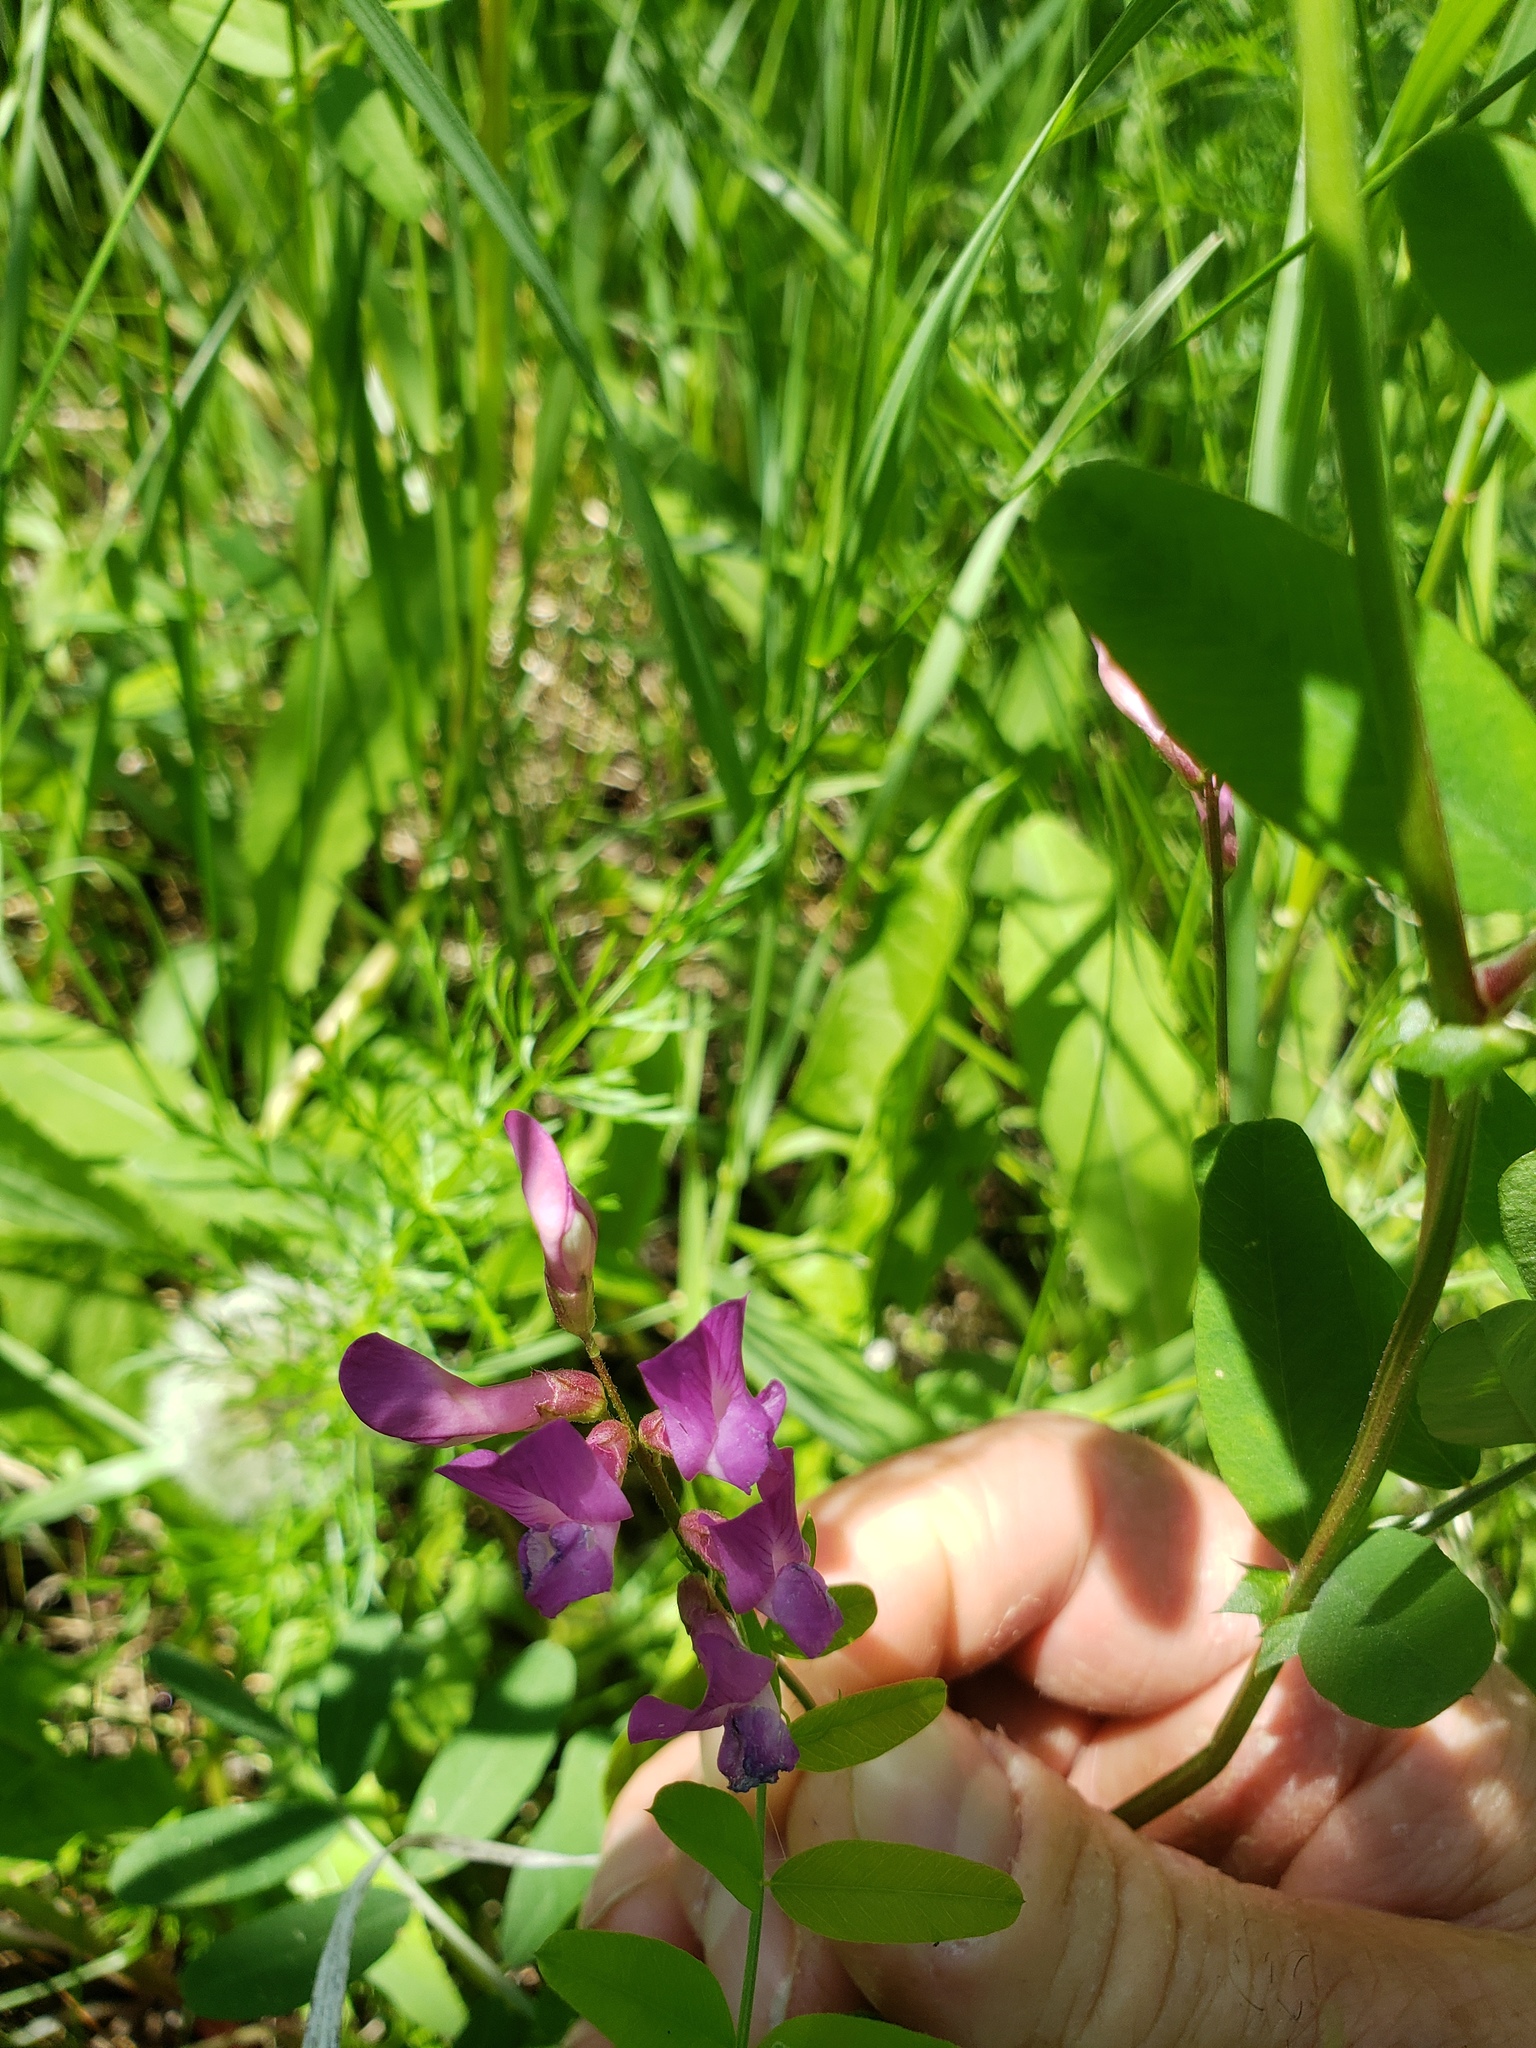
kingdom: Plantae
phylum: Tracheophyta
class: Magnoliopsida
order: Fabales
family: Fabaceae
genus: Vicia
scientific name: Vicia americana
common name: American vetch
